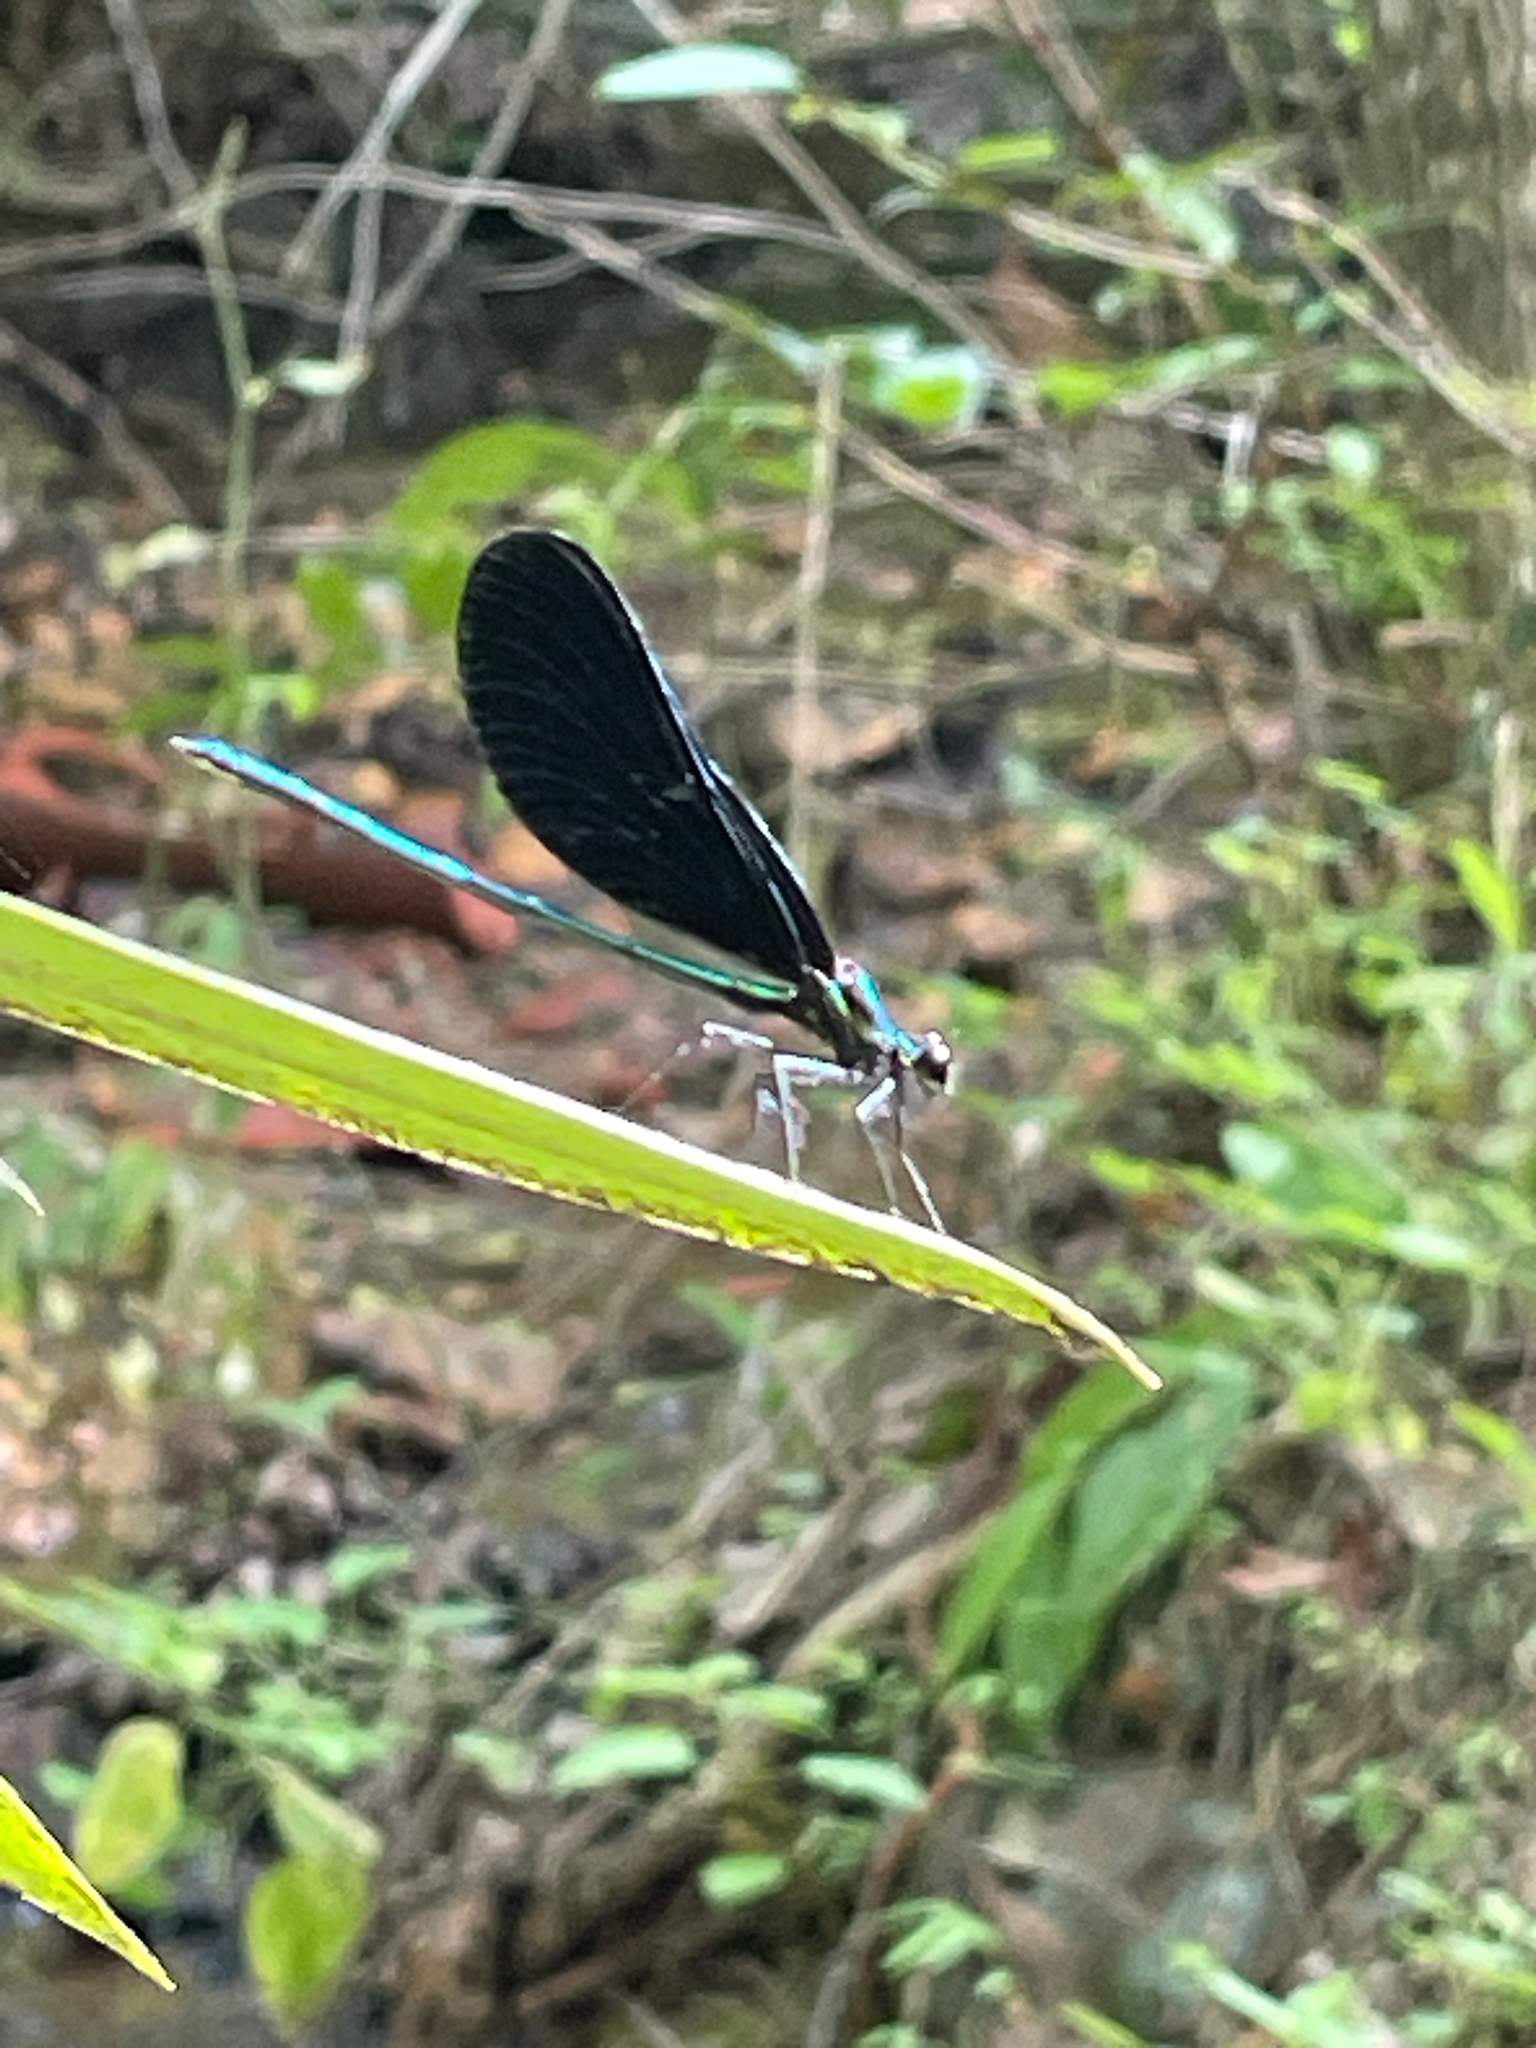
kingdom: Animalia
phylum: Arthropoda
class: Insecta
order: Odonata
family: Calopterygidae
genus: Calopteryx
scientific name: Calopteryx maculata
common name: Ebony jewelwing
